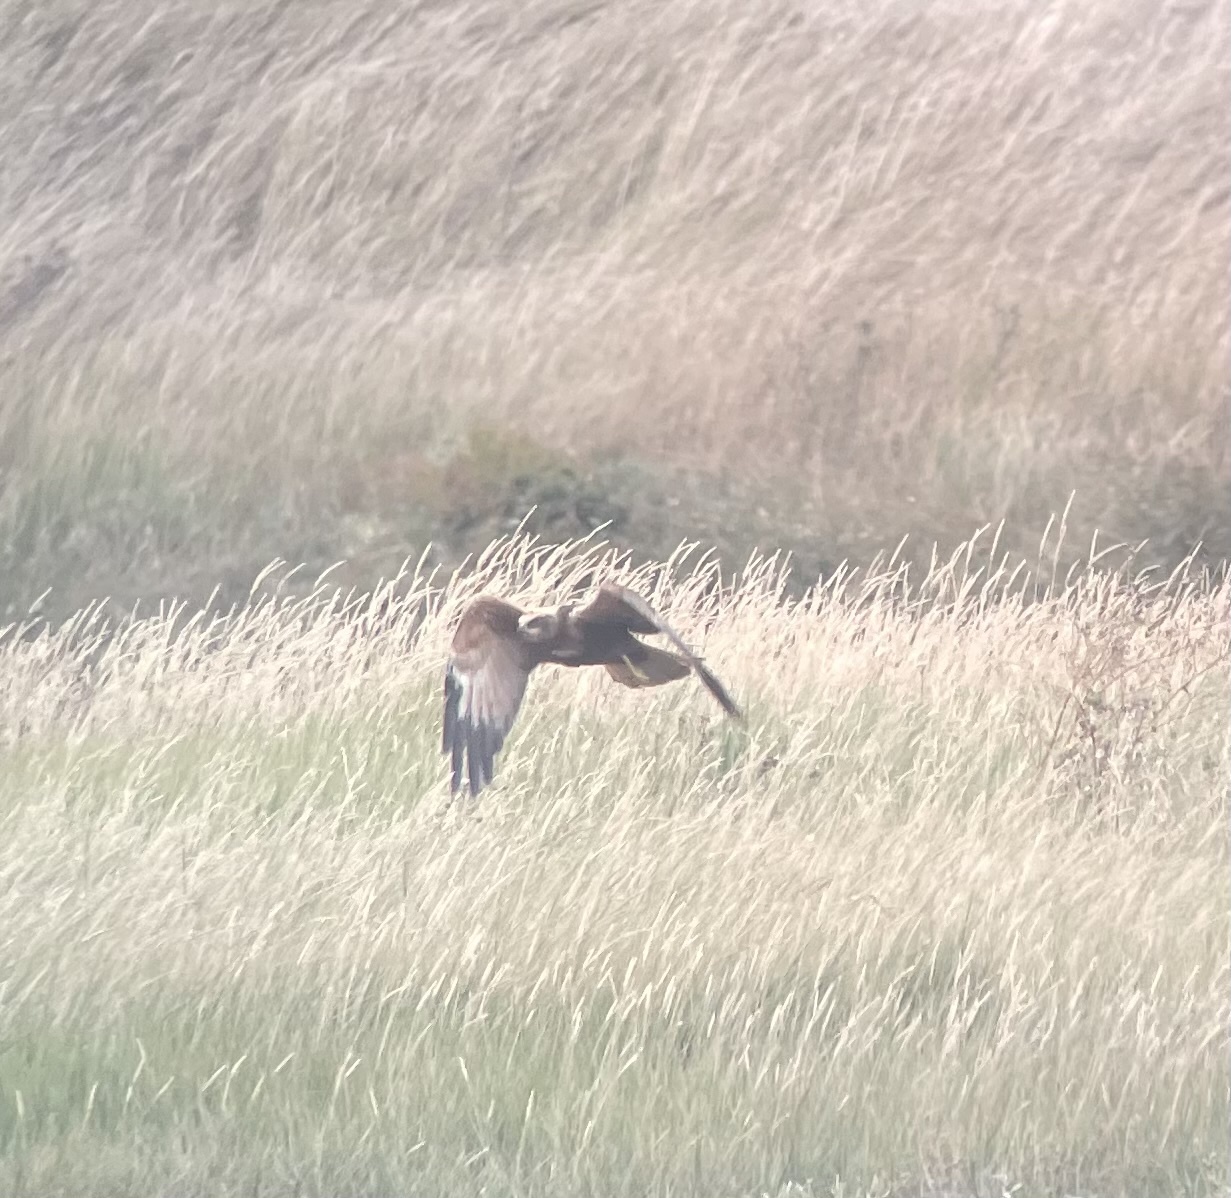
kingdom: Animalia
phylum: Chordata
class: Aves
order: Accipitriformes
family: Accipitridae
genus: Circus
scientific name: Circus aeruginosus
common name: Western marsh harrier
